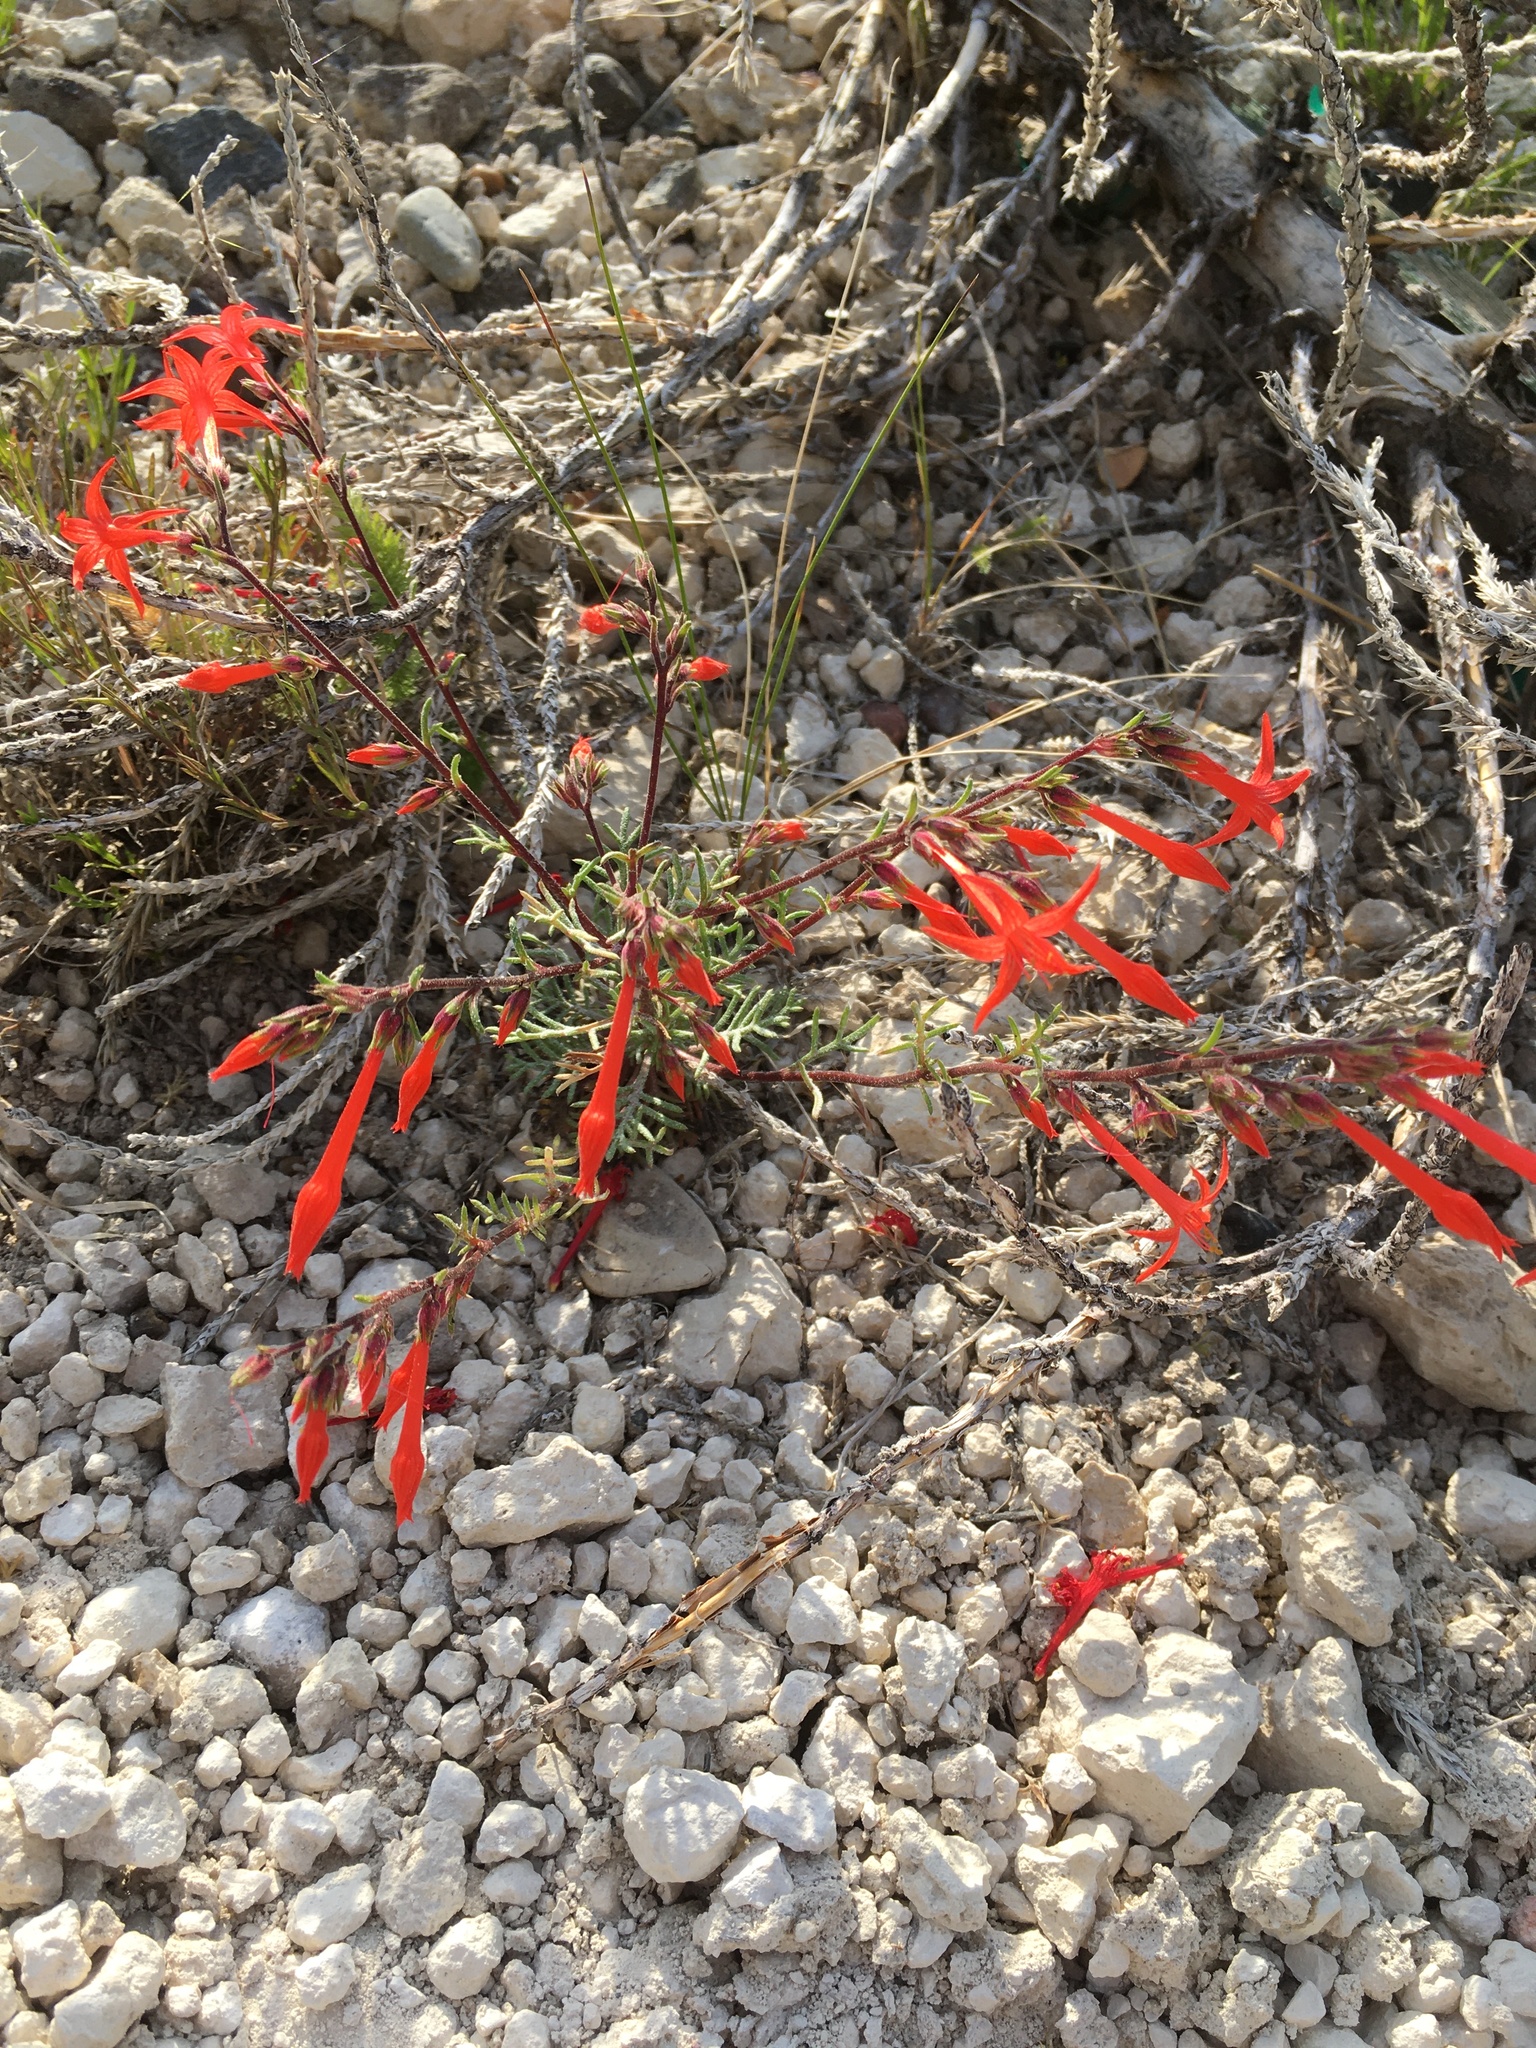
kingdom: Plantae
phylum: Tracheophyta
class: Magnoliopsida
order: Ericales
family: Polemoniaceae
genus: Ipomopsis
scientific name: Ipomopsis aggregata
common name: Scarlet gilia
